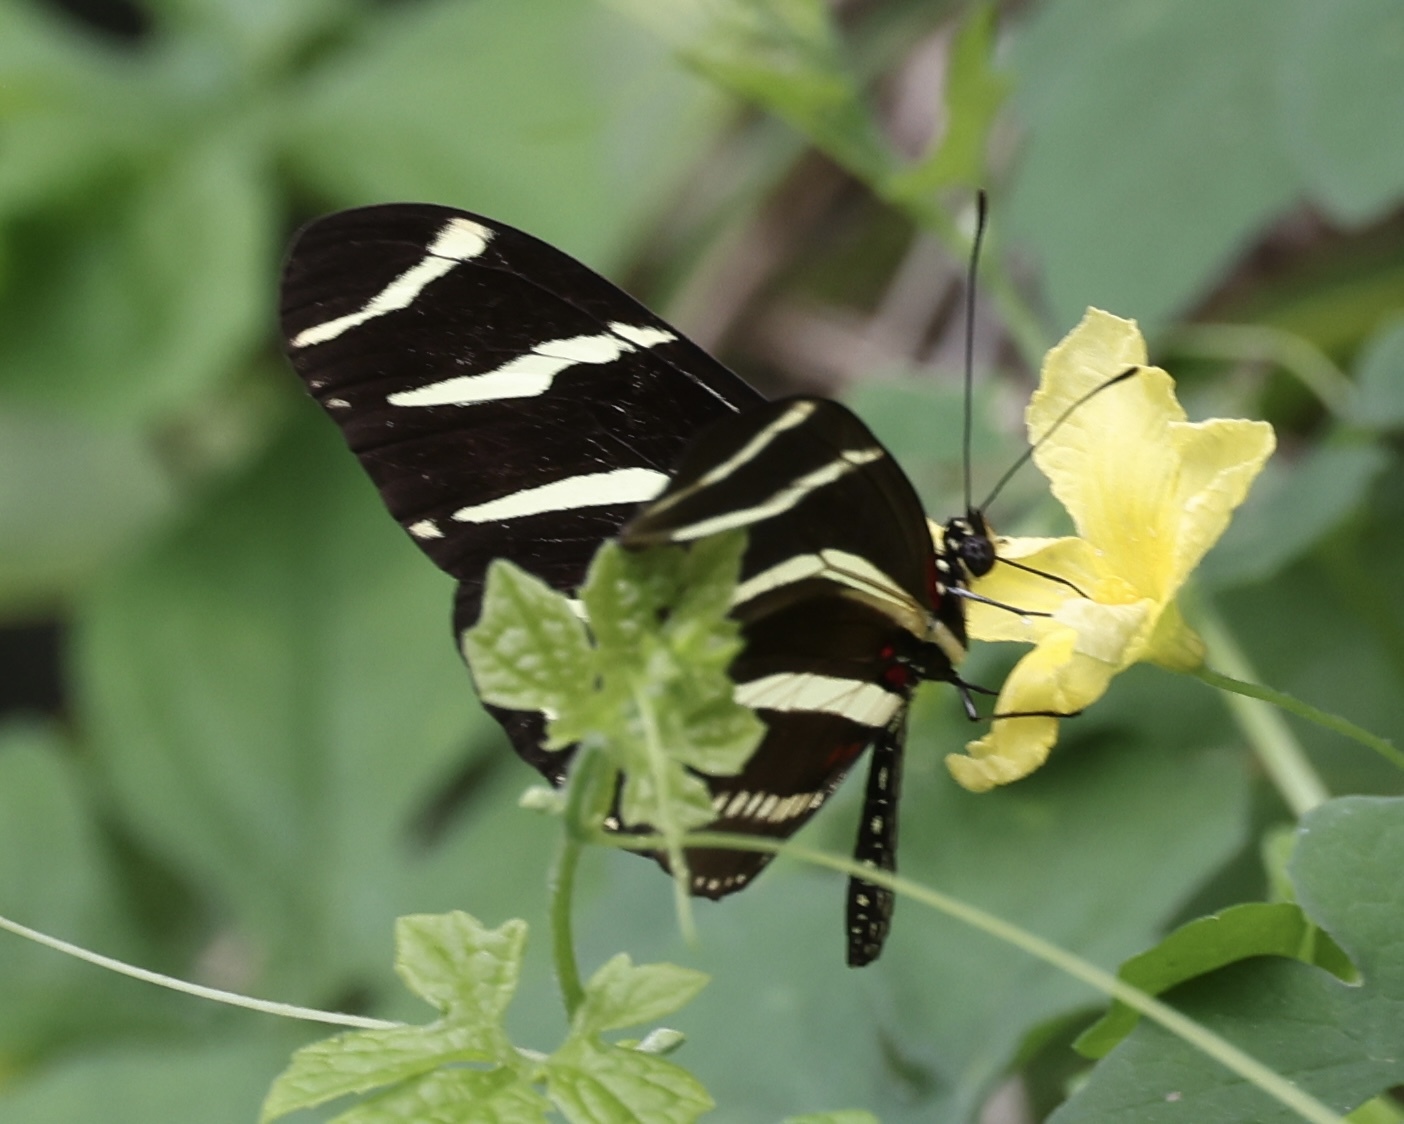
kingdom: Animalia
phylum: Arthropoda
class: Insecta
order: Lepidoptera
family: Nymphalidae
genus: Heliconius
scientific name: Heliconius charithonia
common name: Zebra long wing
